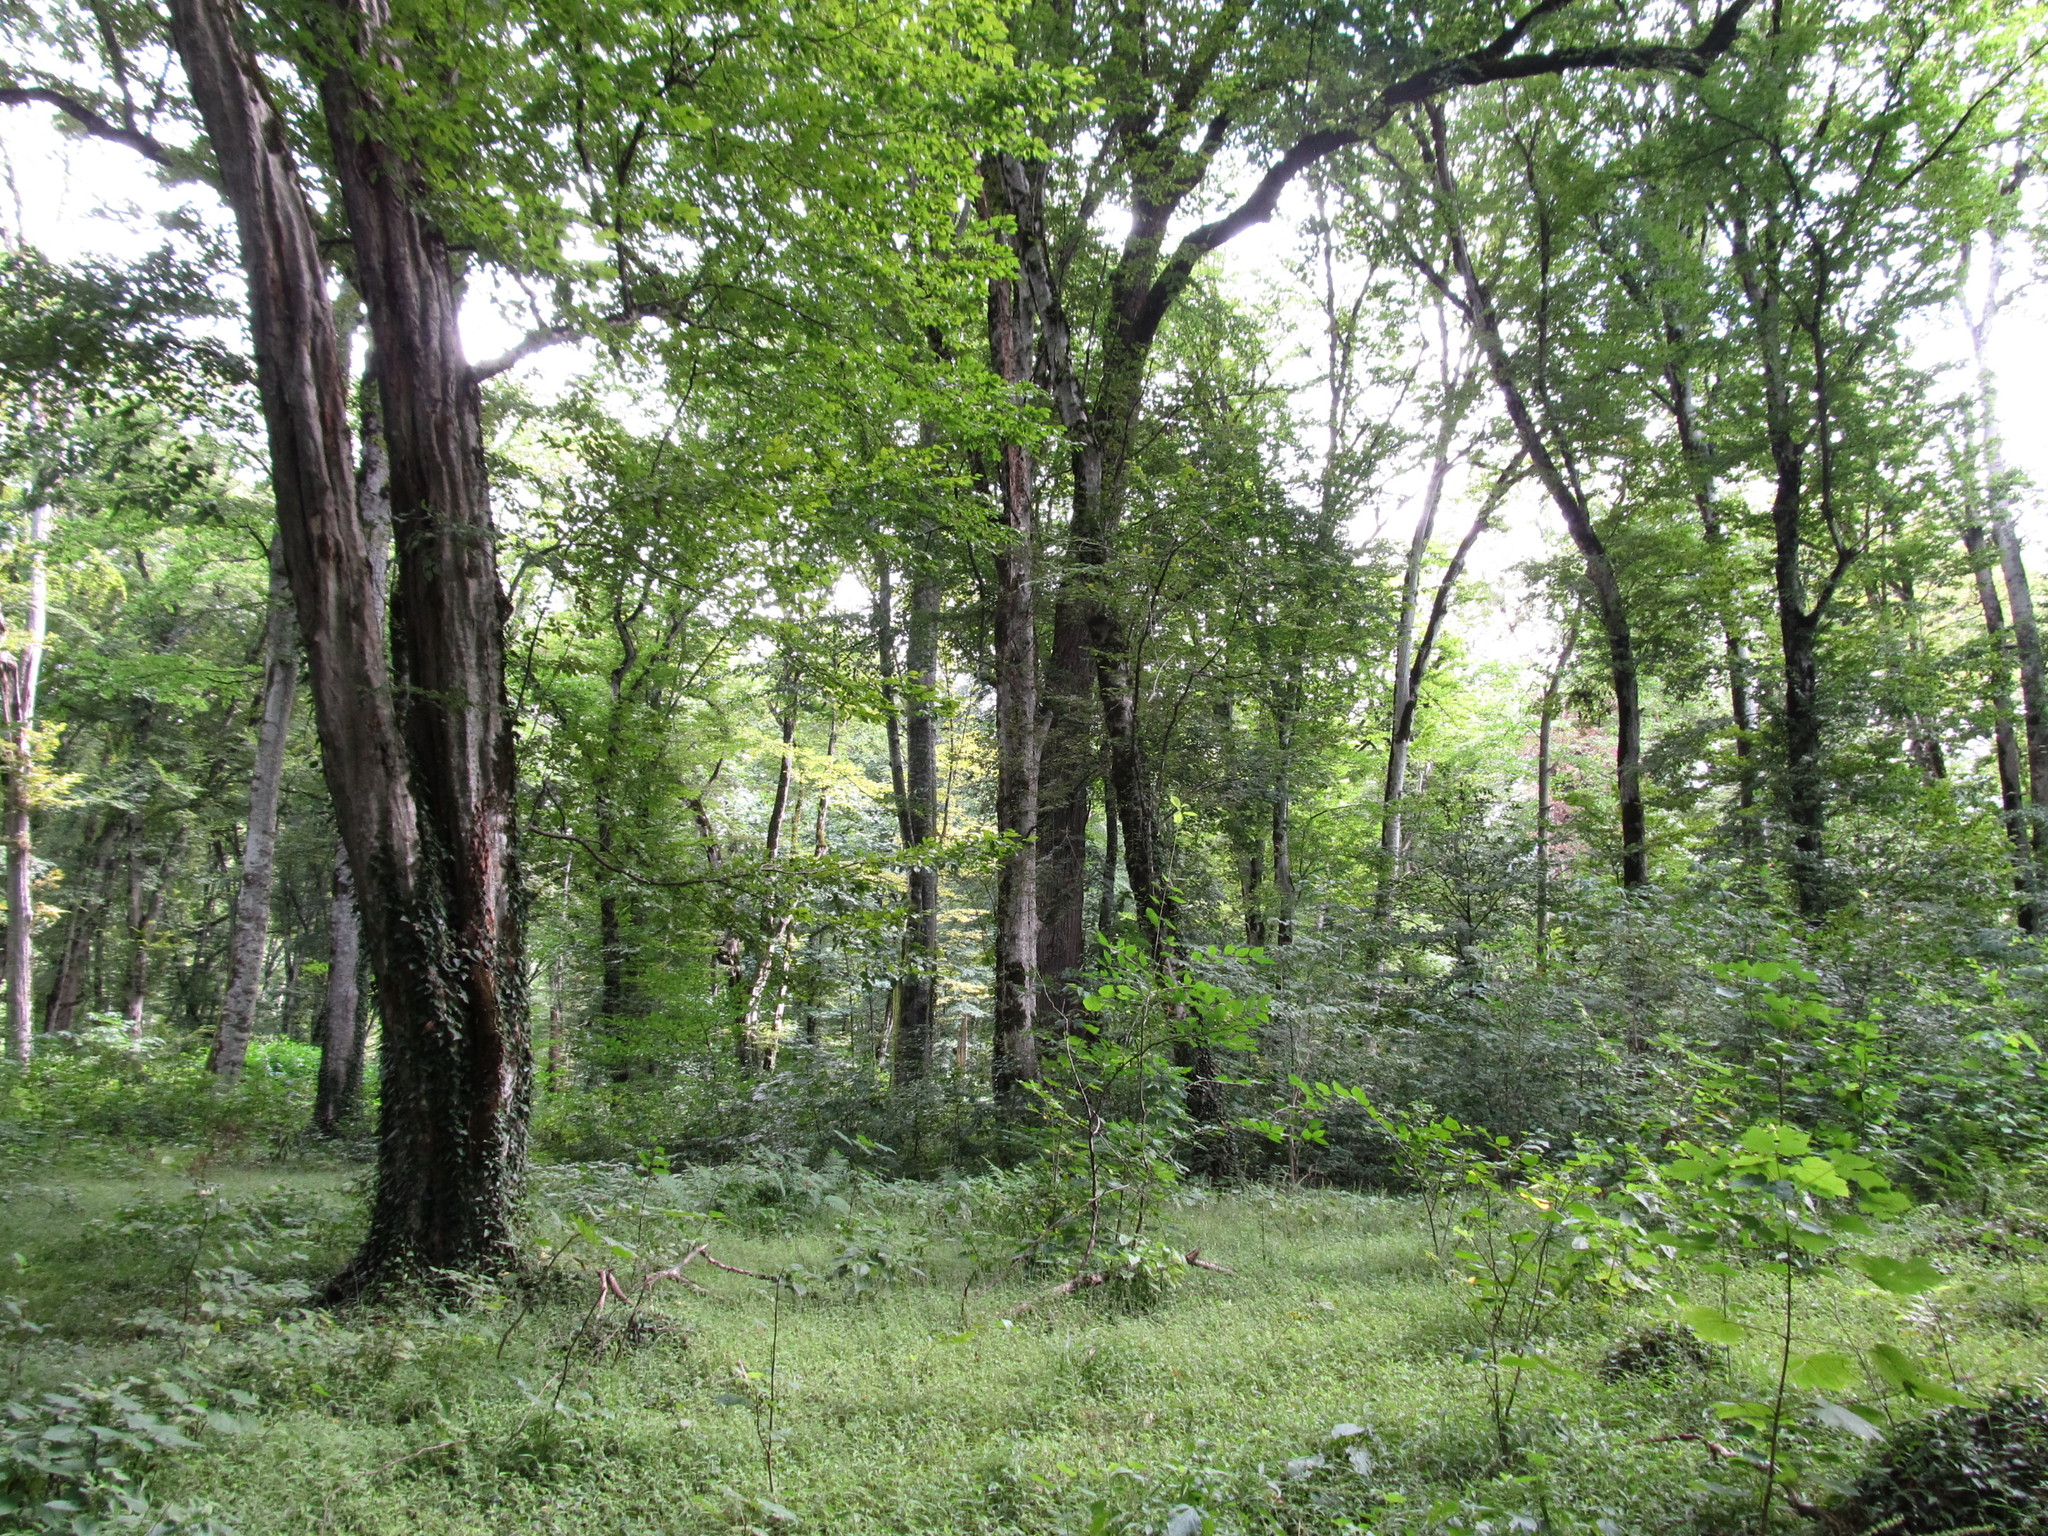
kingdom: Plantae
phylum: Tracheophyta
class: Magnoliopsida
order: Fagales
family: Betulaceae
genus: Carpinus
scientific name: Carpinus betulus
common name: Hornbeam
